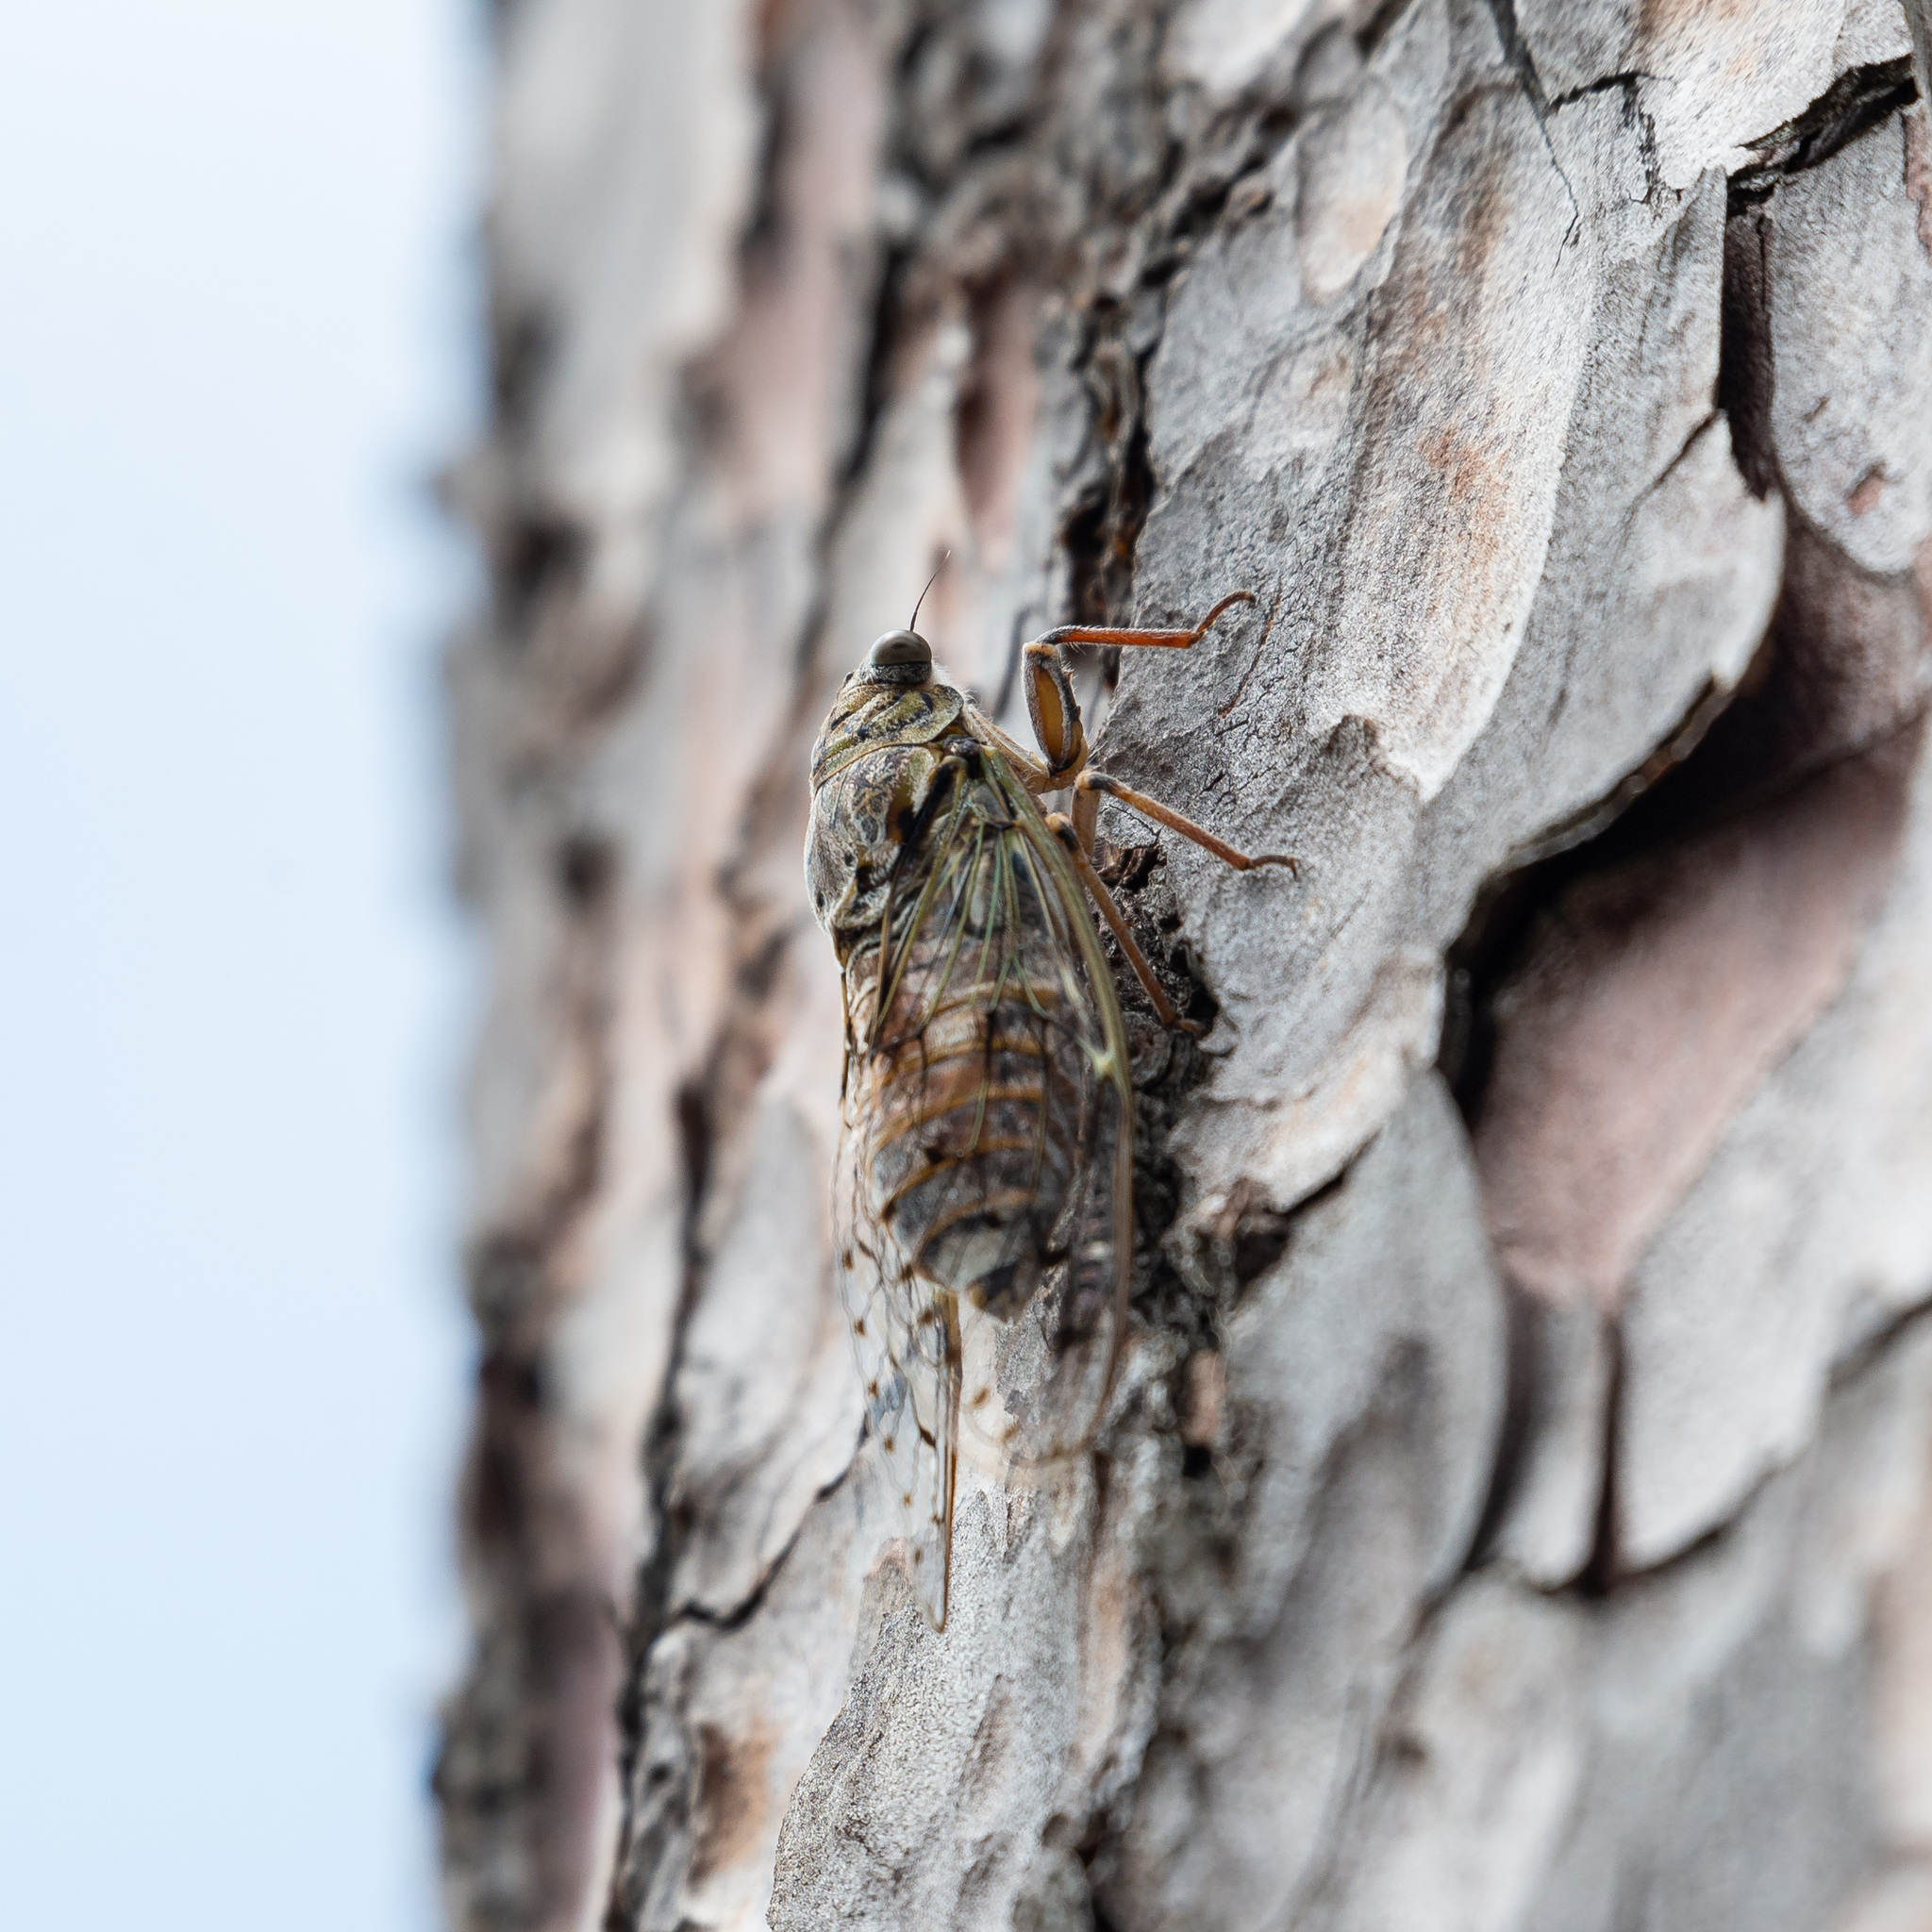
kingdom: Animalia
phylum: Arthropoda
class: Insecta
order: Hemiptera
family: Cicadidae
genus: Cicada
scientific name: Cicada orni
